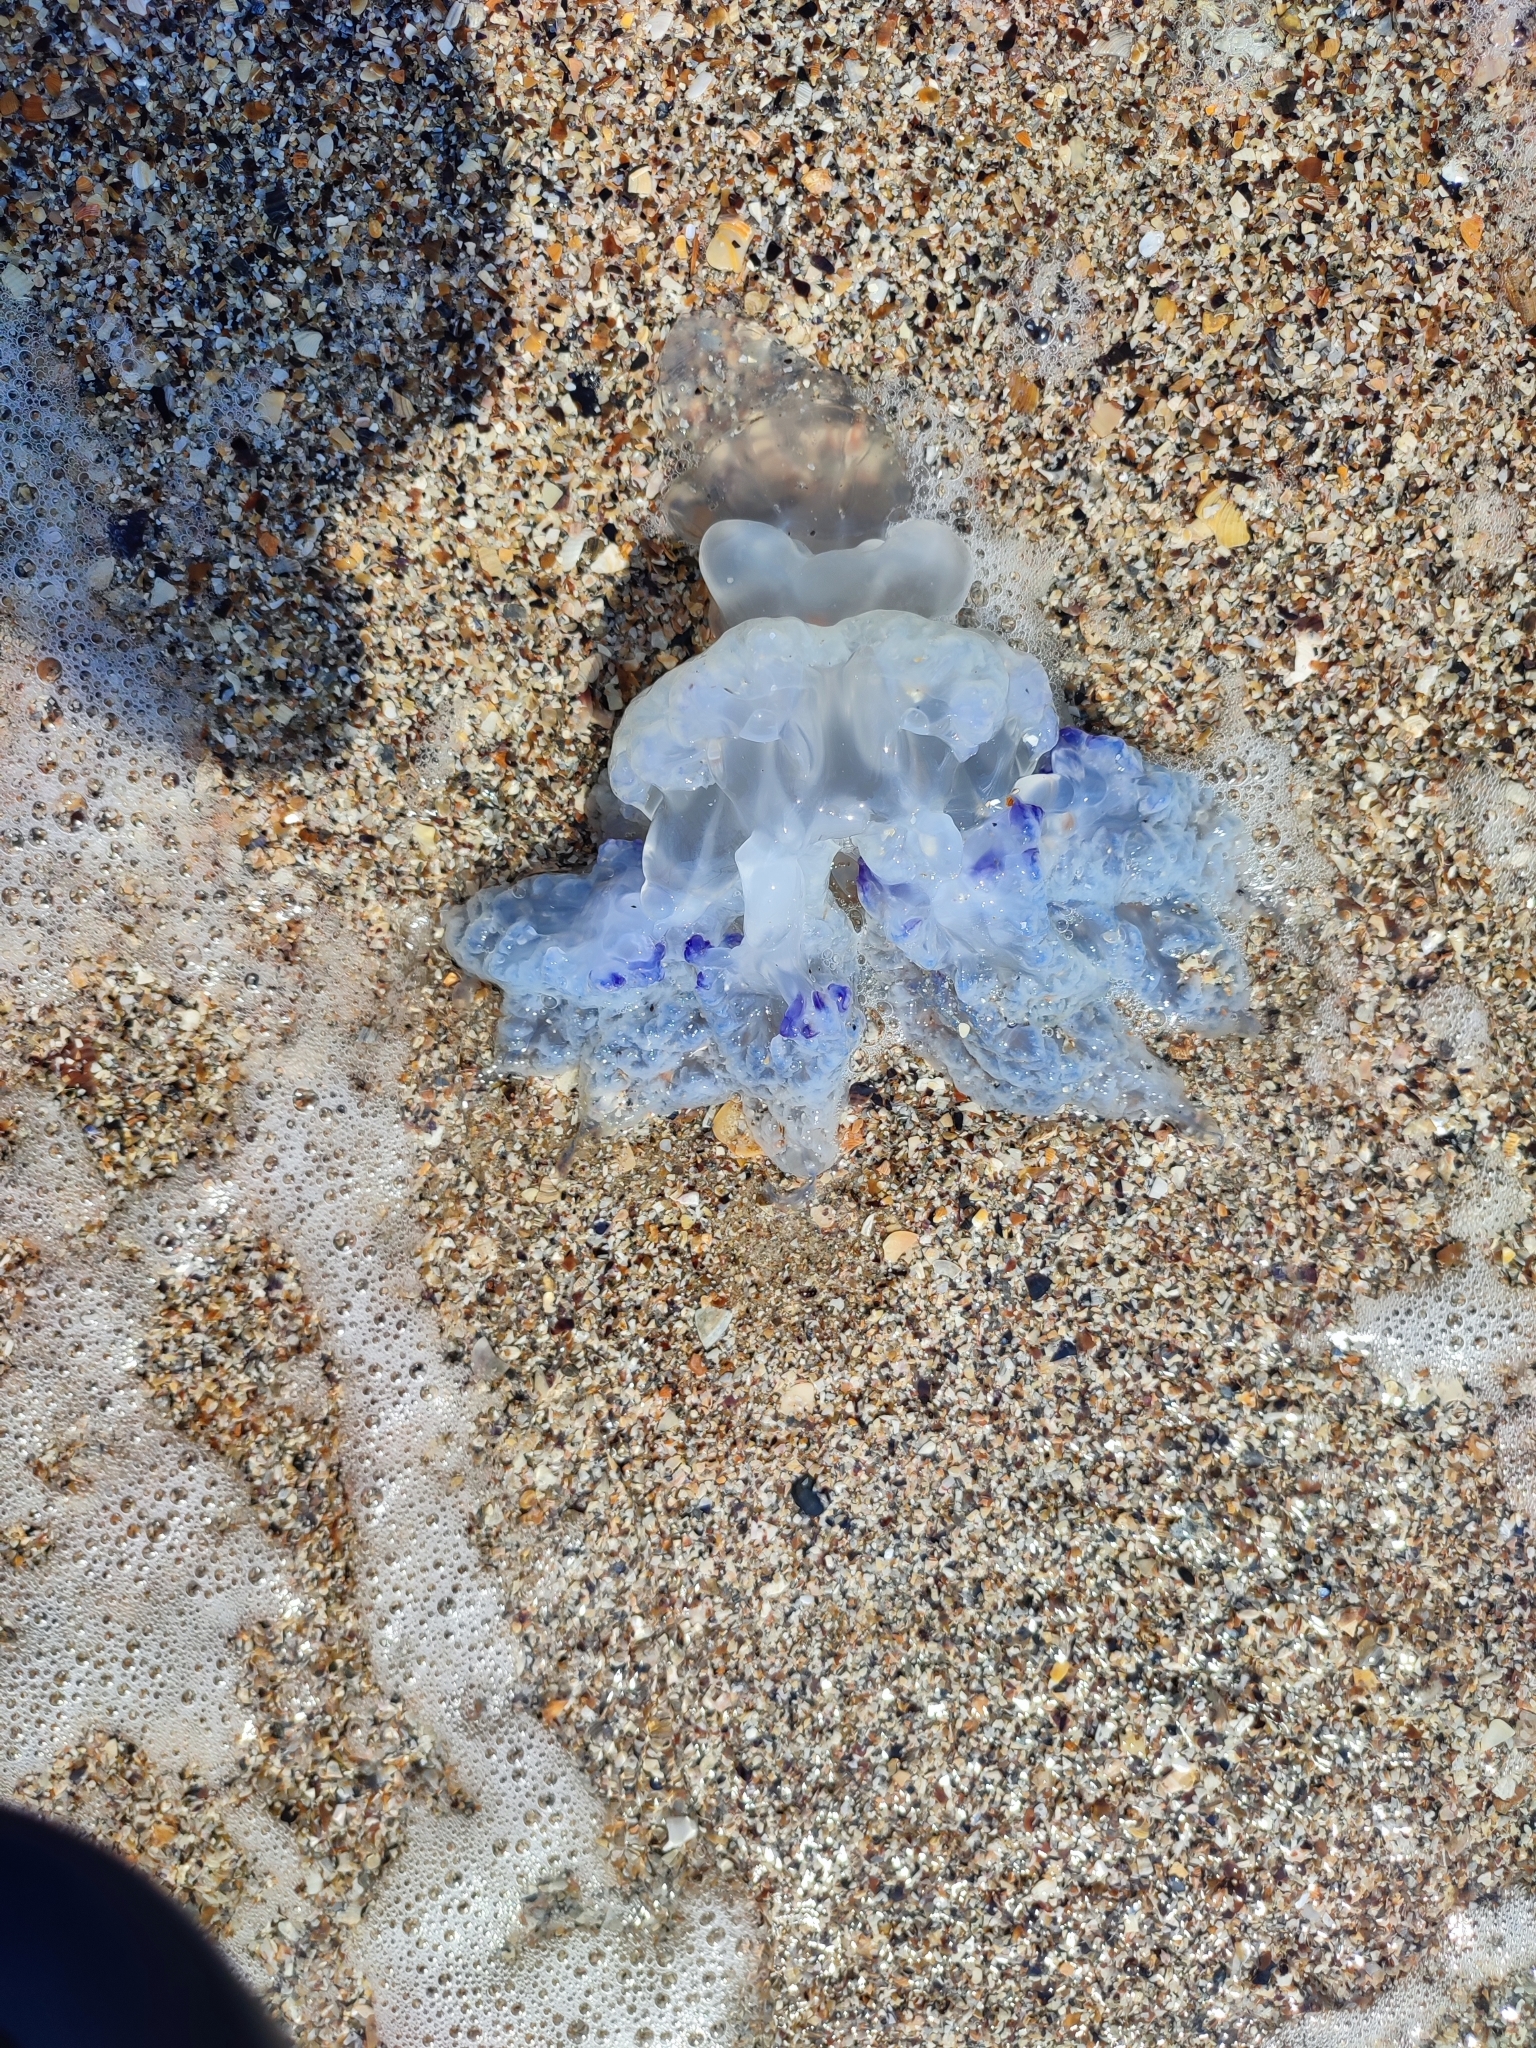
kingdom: Animalia
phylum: Cnidaria
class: Scyphozoa
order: Rhizostomeae
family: Rhizostomatidae
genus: Rhizostoma
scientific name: Rhizostoma pulmo
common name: Barrel jellyfish
